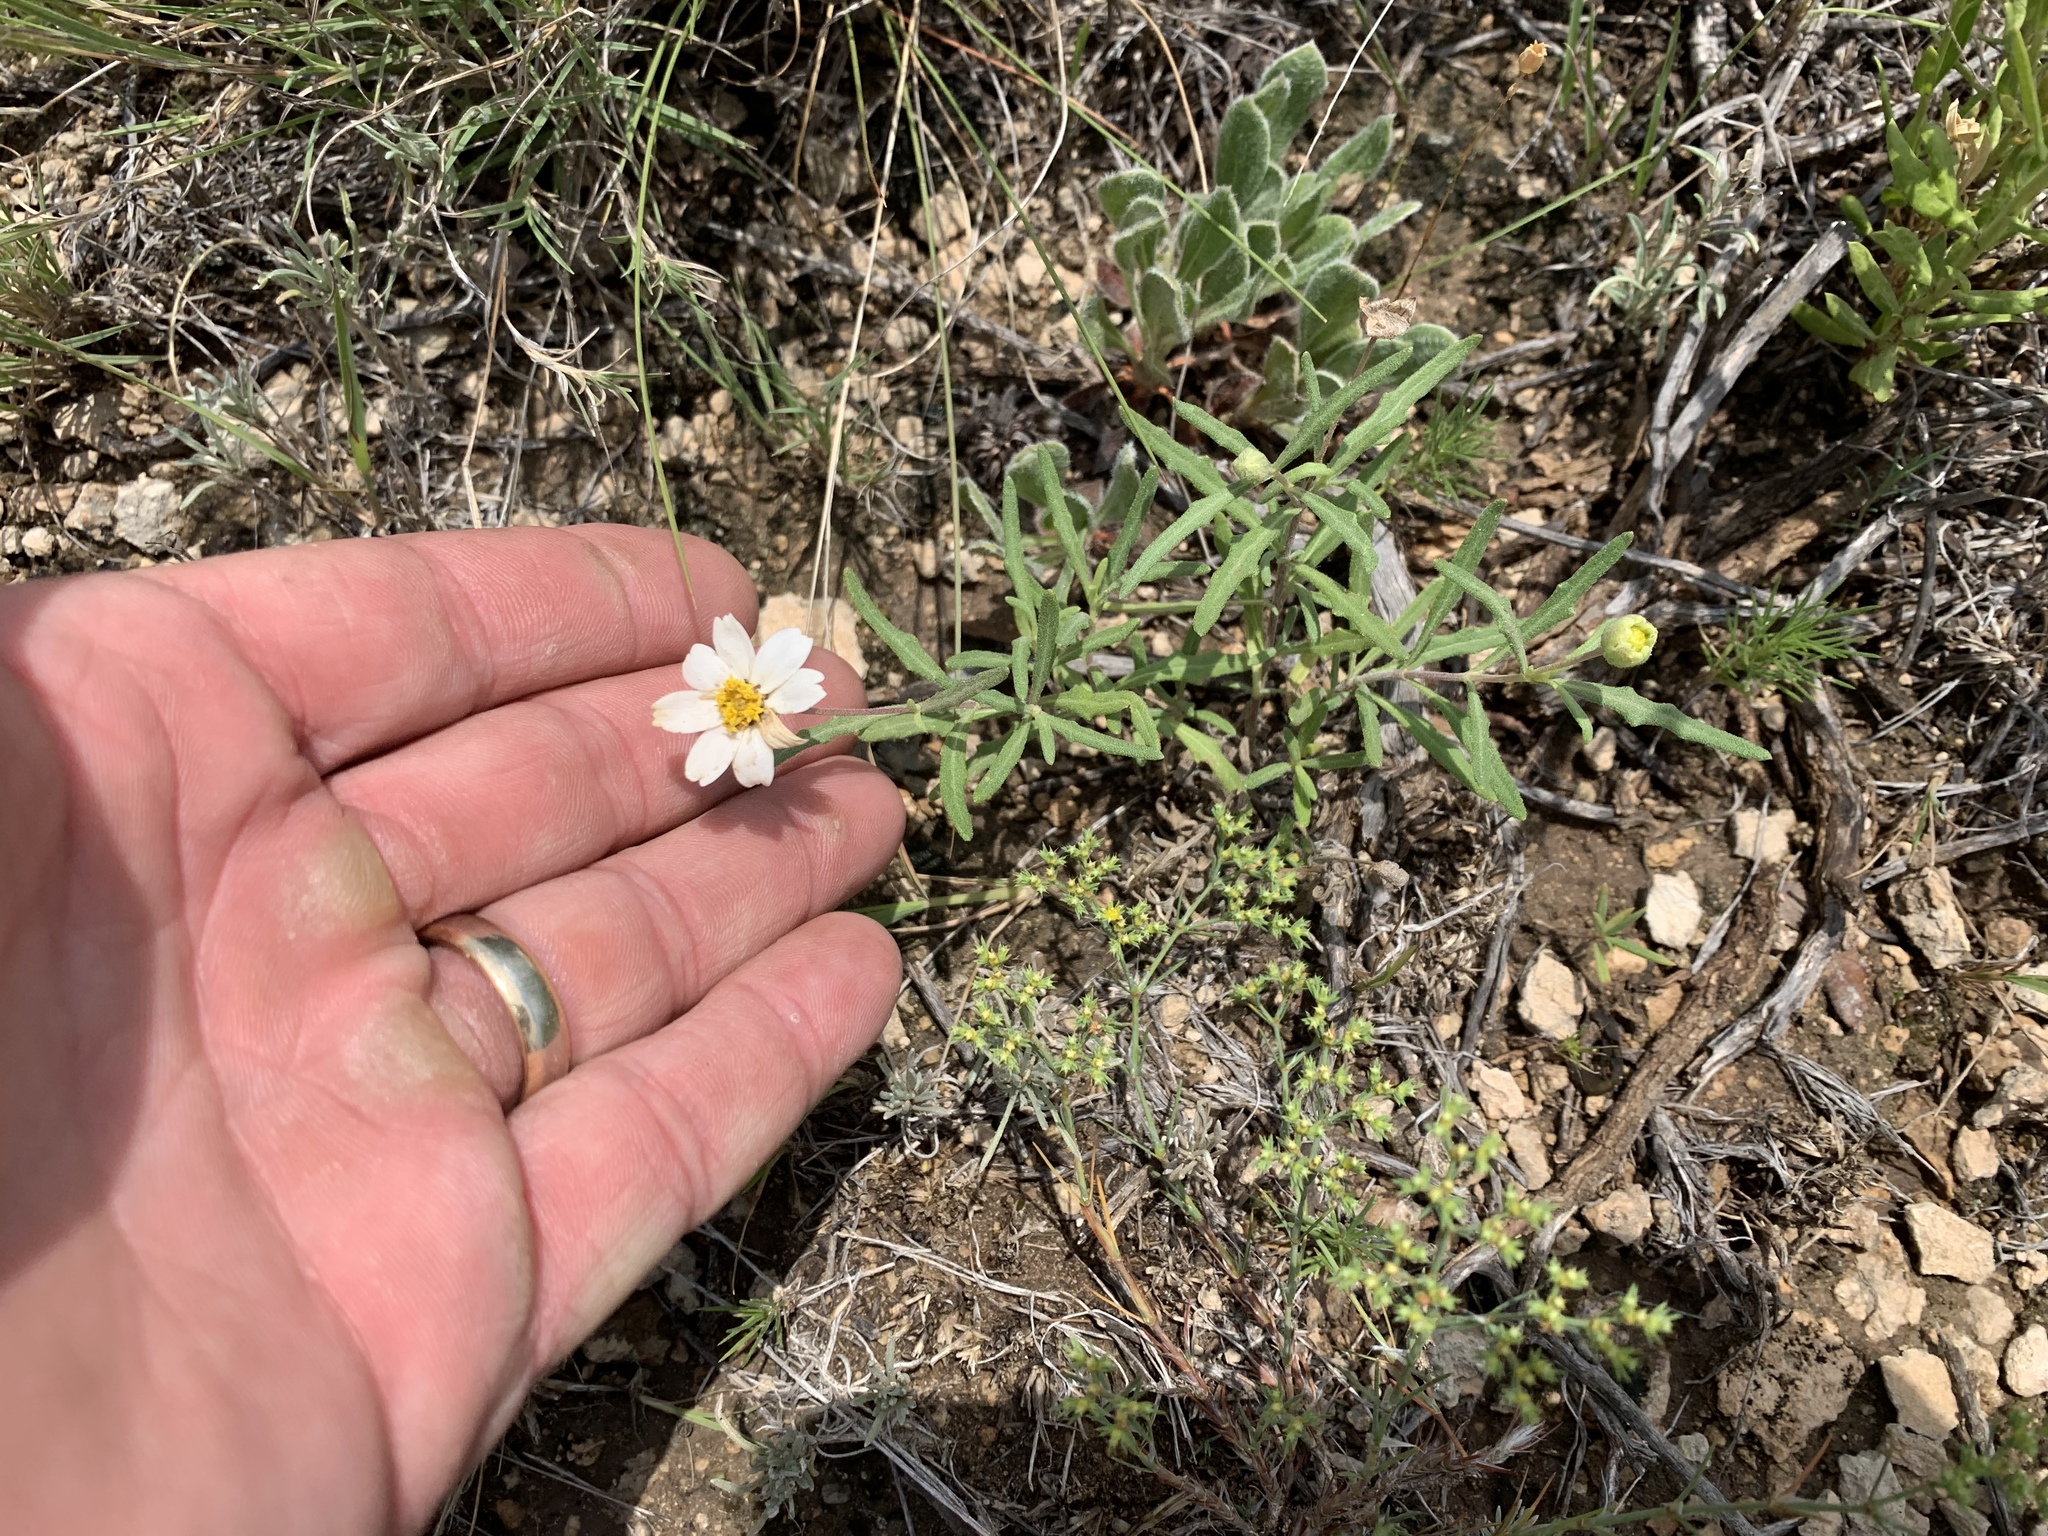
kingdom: Plantae
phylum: Tracheophyta
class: Magnoliopsida
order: Asterales
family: Asteraceae
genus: Melampodium
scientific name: Melampodium leucanthum
